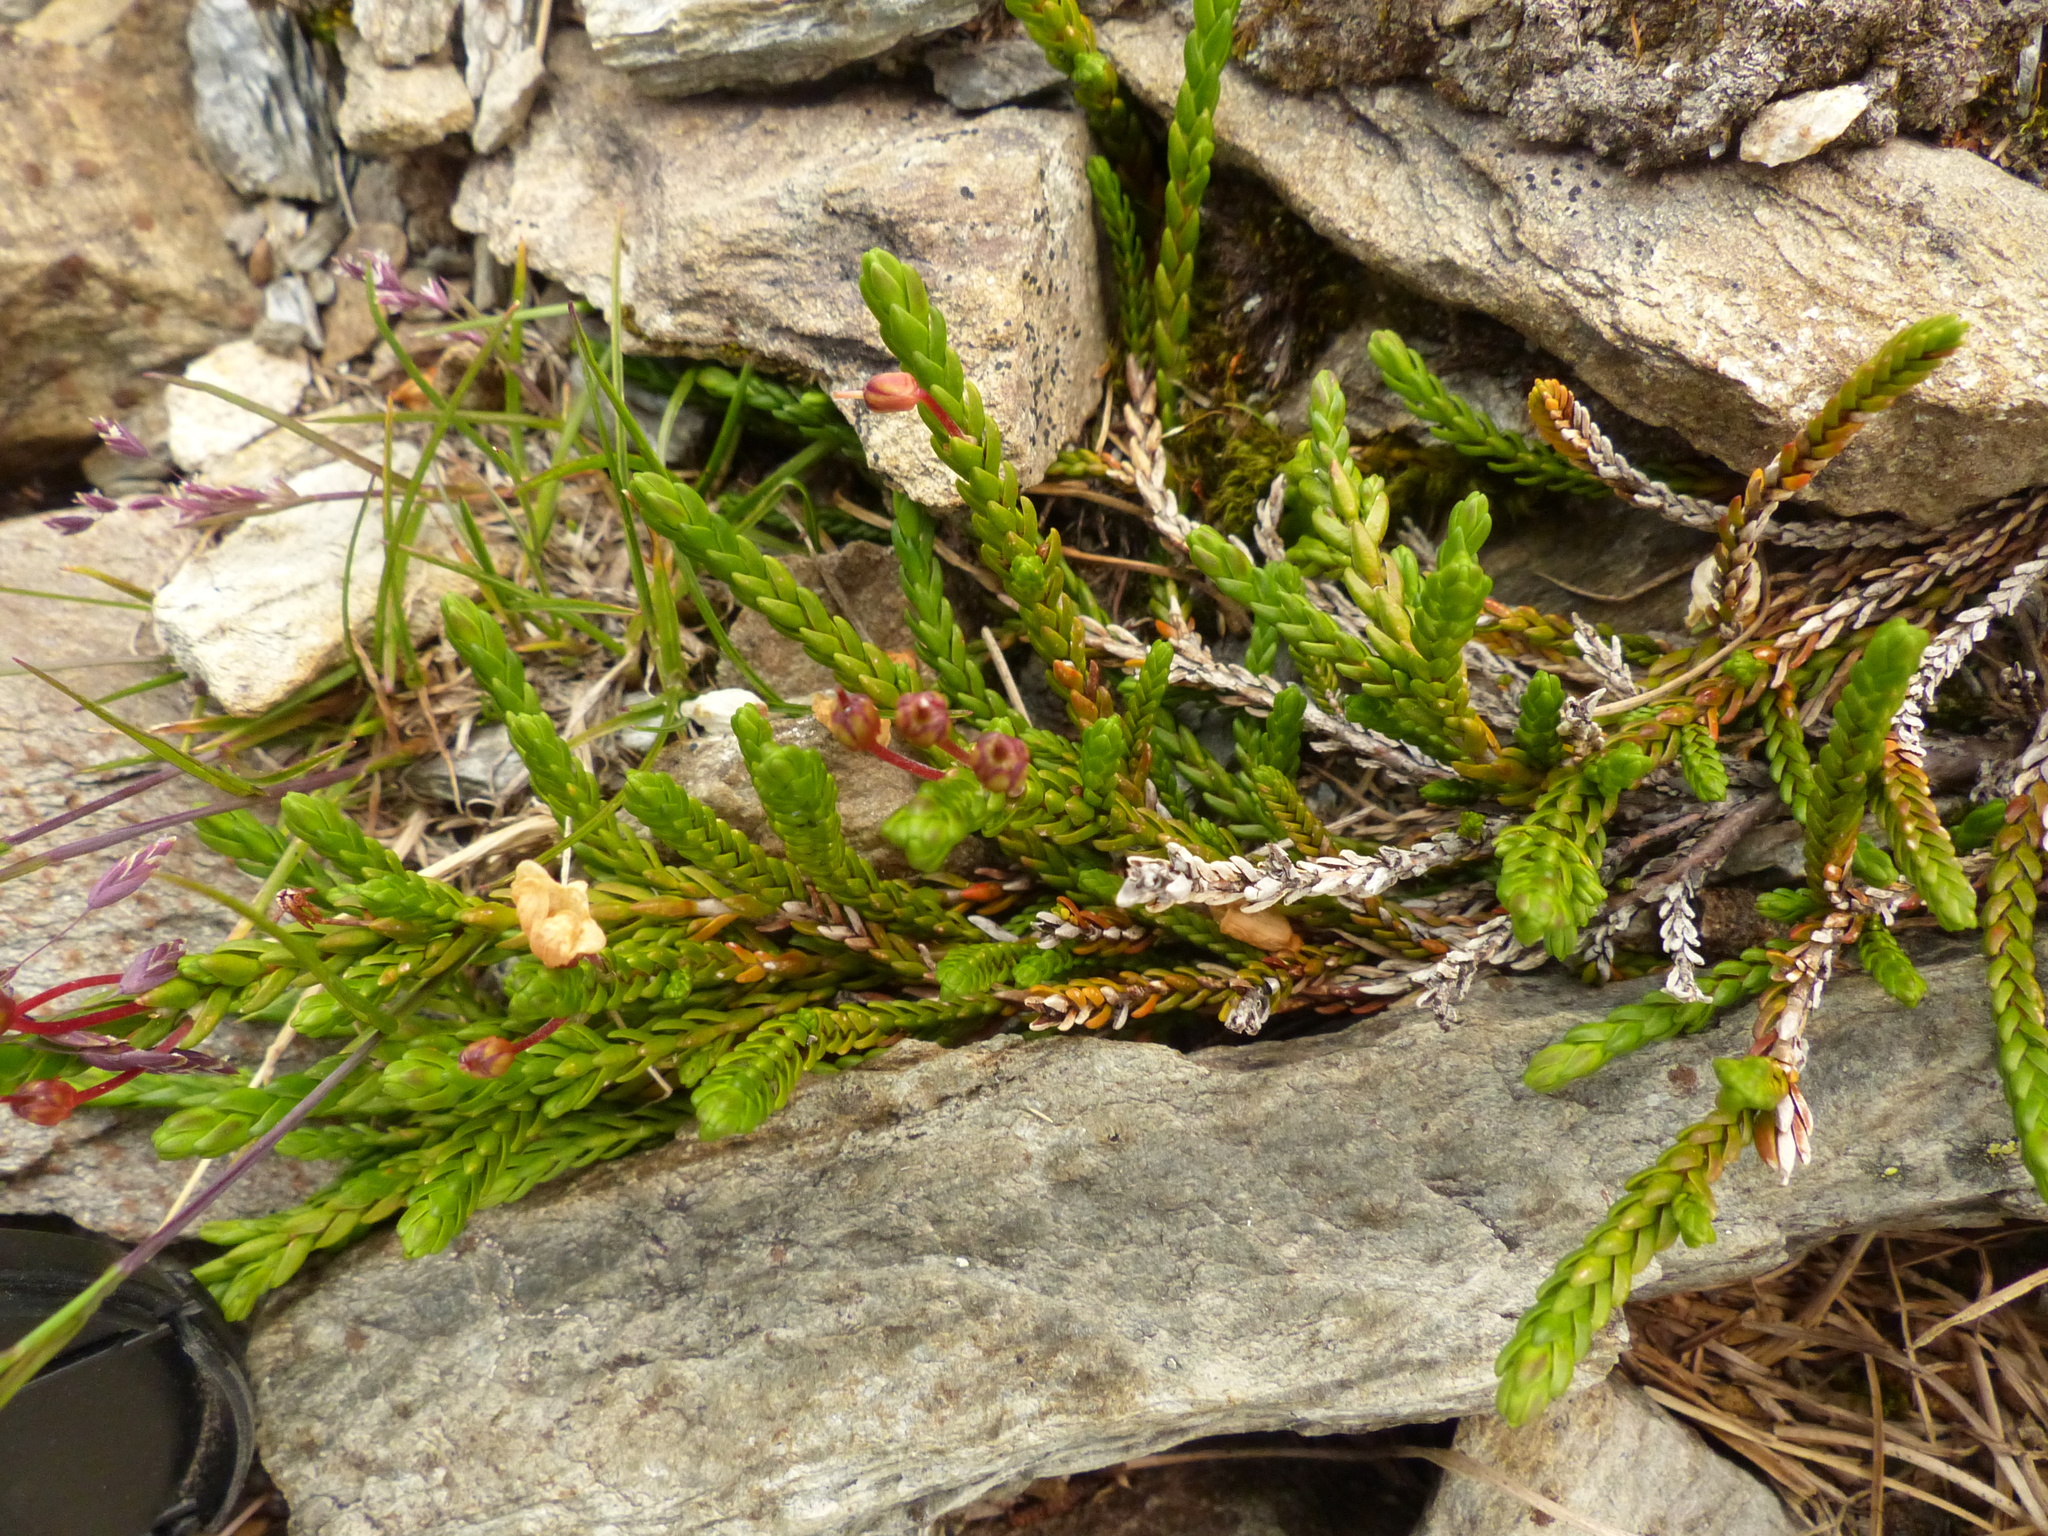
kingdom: Plantae
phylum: Tracheophyta
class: Magnoliopsida
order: Ericales
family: Ericaceae
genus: Cassiope
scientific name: Cassiope mertensiana
